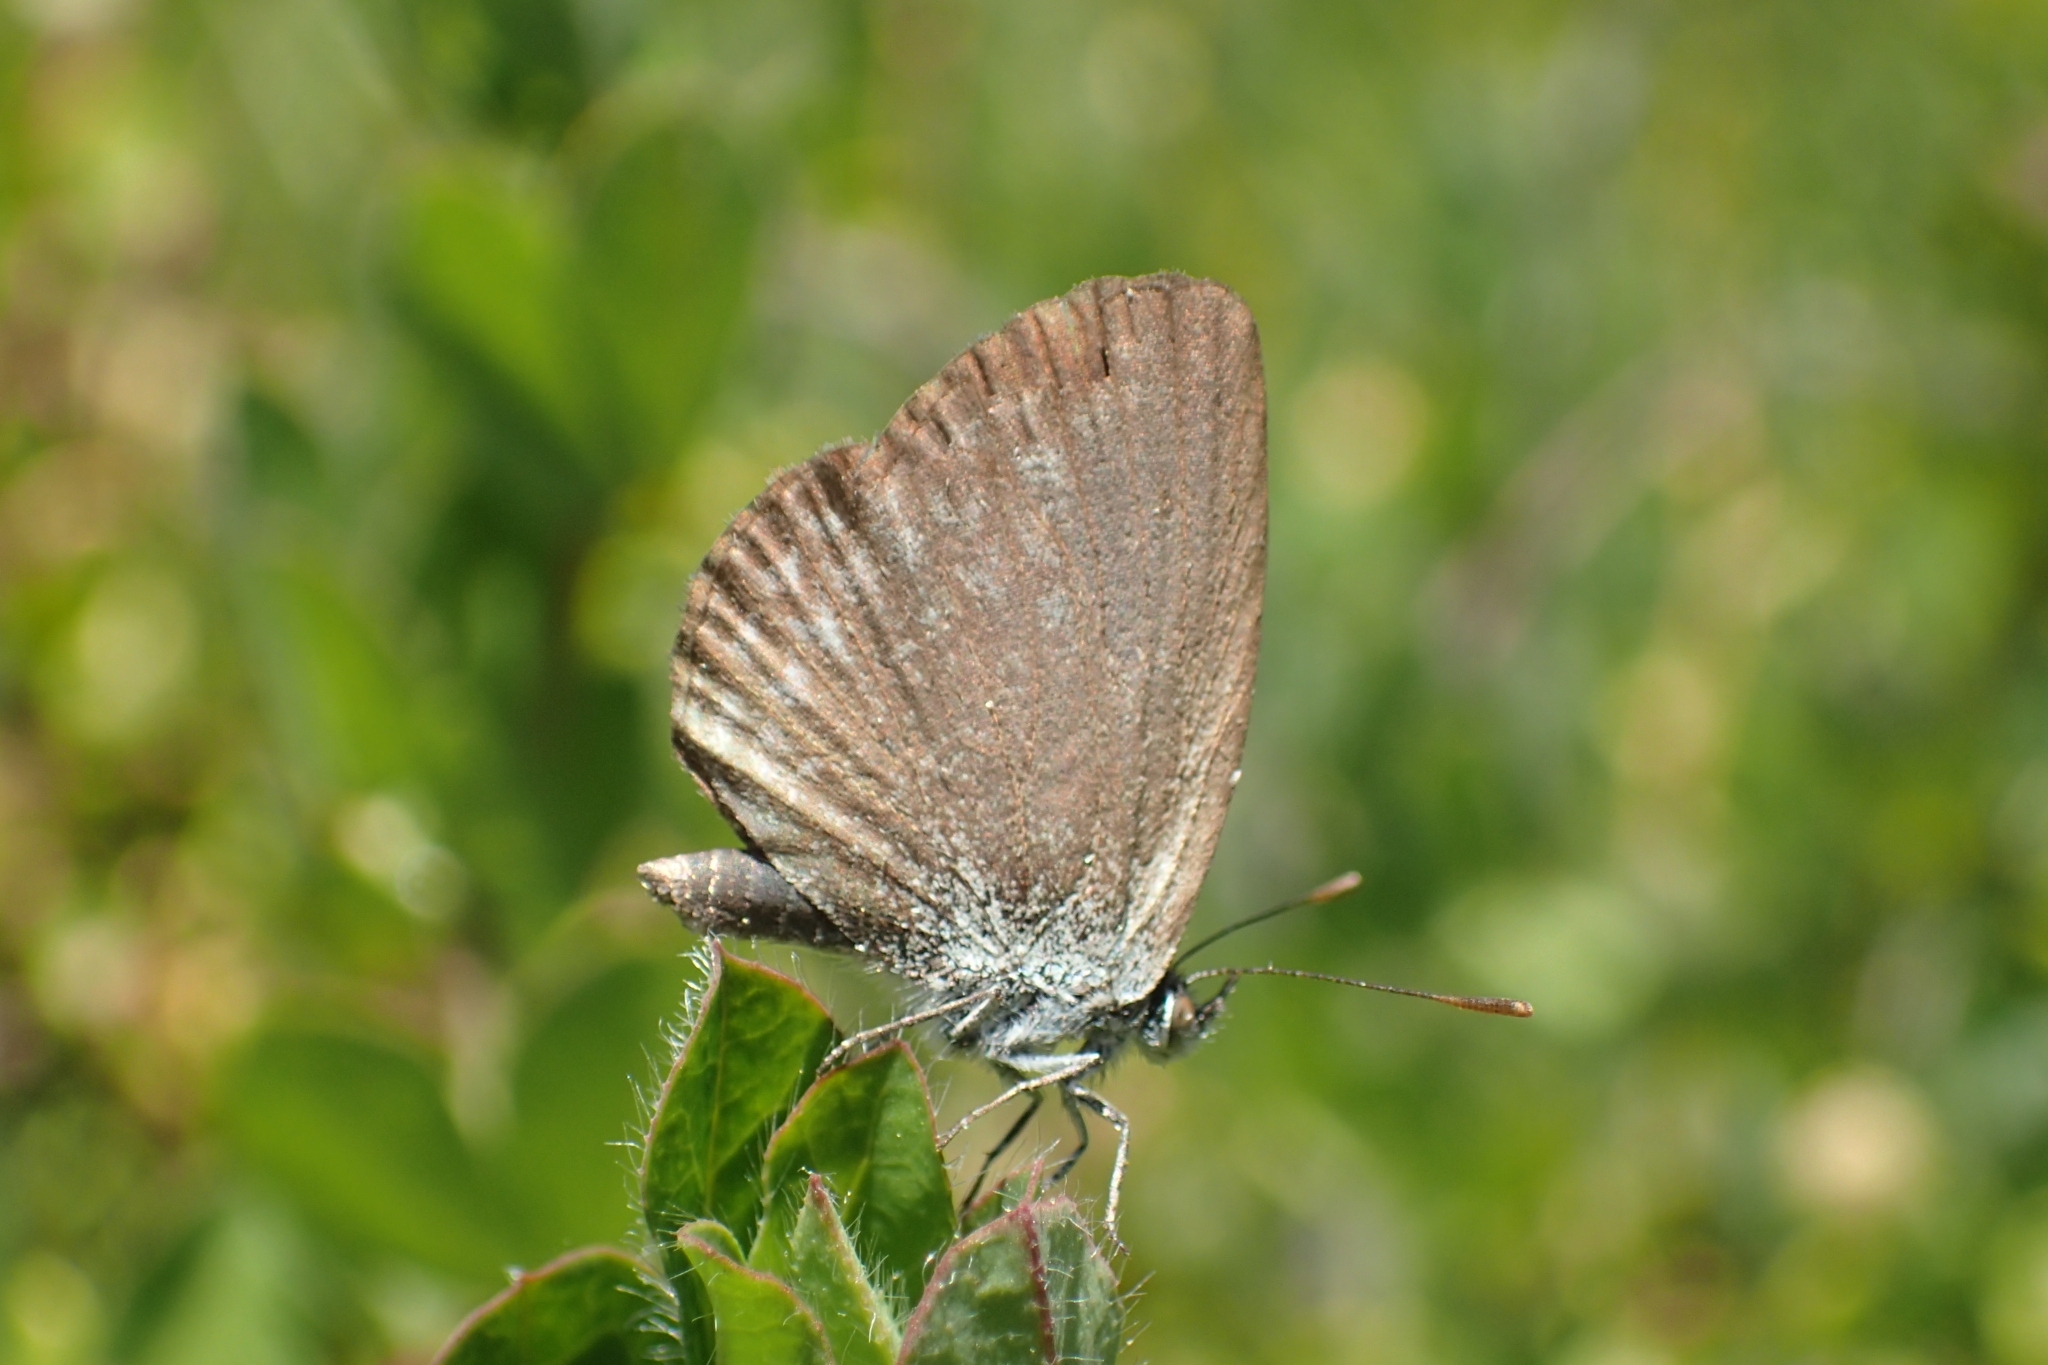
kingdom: Animalia
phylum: Arthropoda
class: Insecta
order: Lepidoptera
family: Lycaenidae
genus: Zizina
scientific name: Zizina labradus
